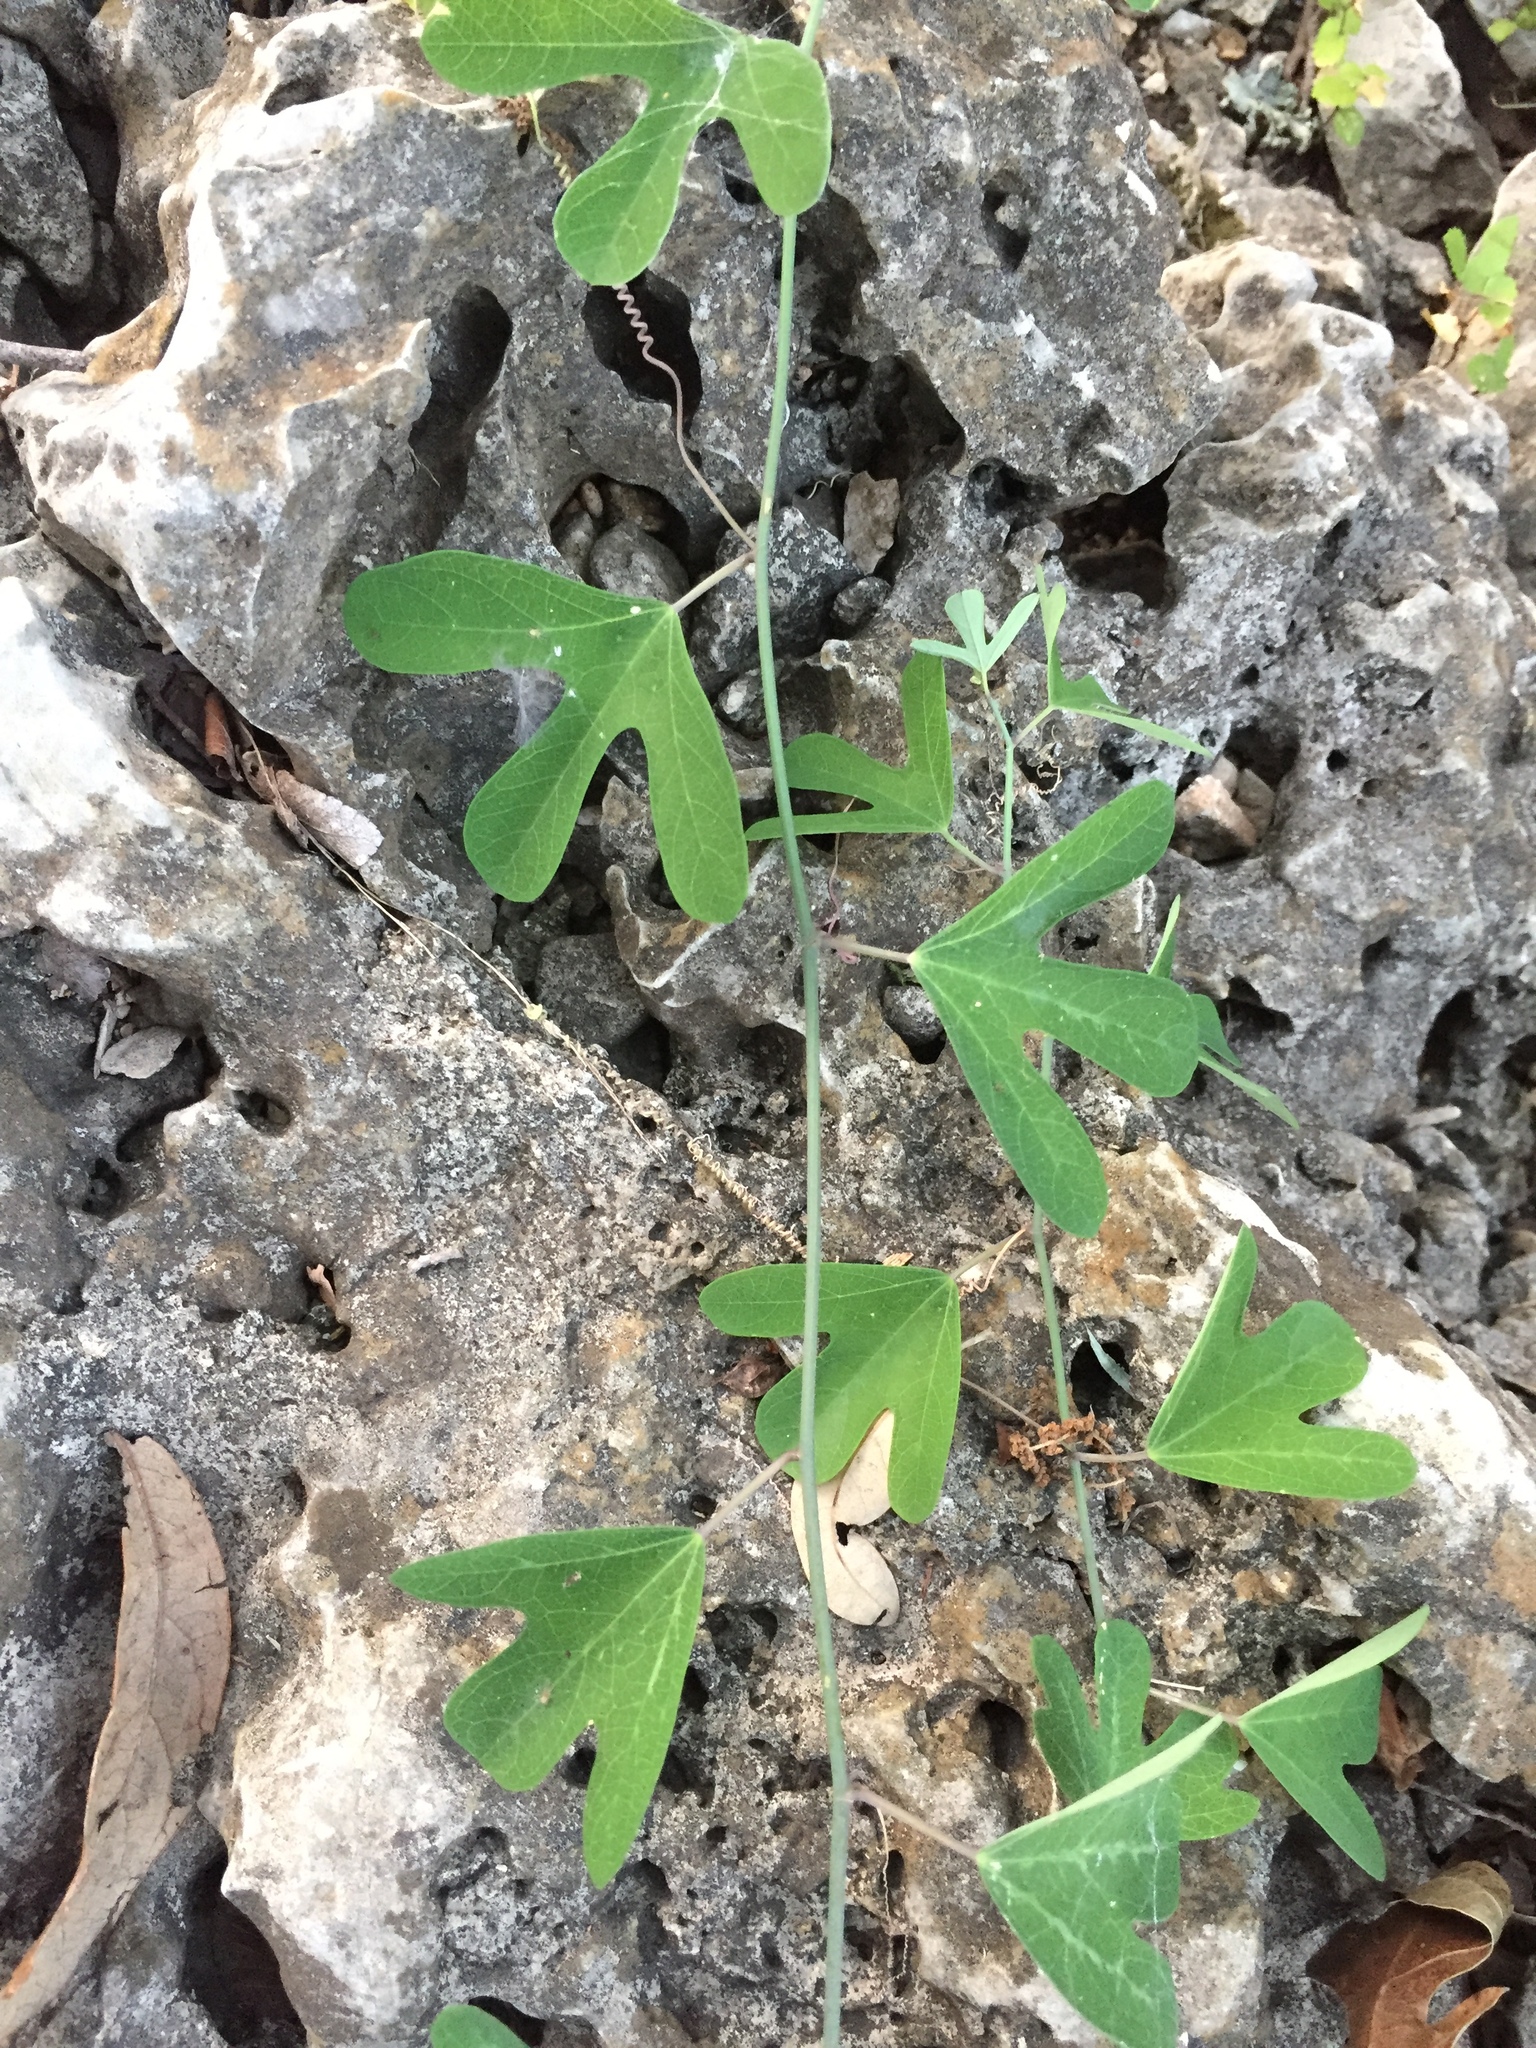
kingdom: Plantae
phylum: Tracheophyta
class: Magnoliopsida
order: Malpighiales
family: Passifloraceae
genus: Passiflora
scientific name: Passiflora affinis
